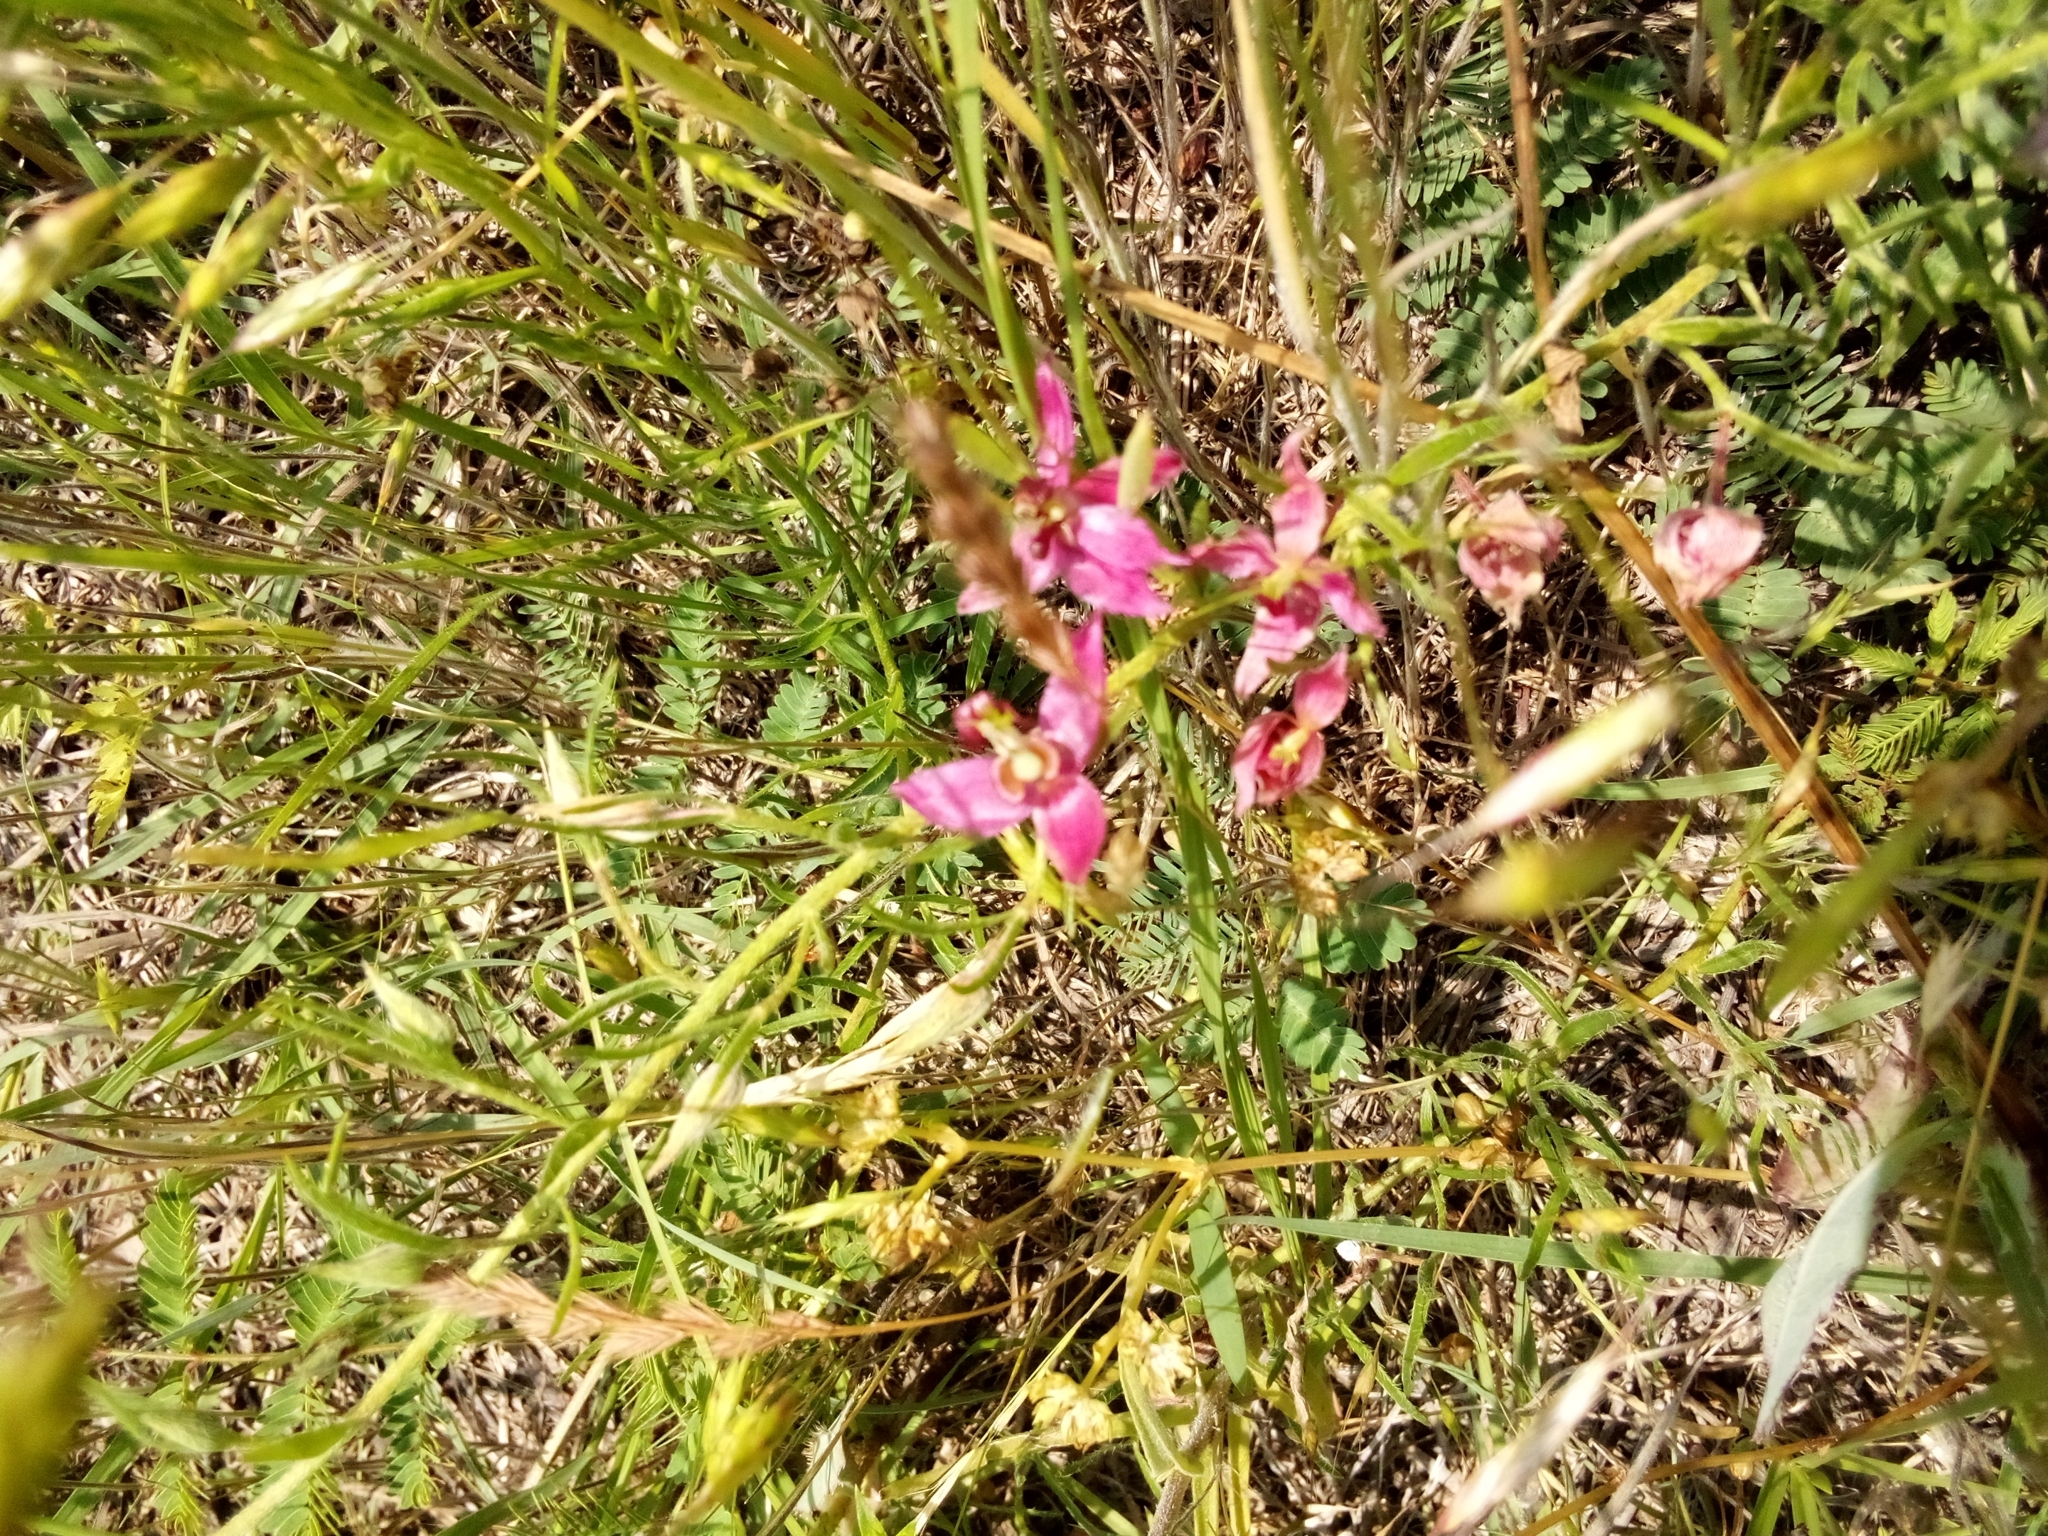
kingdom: Plantae
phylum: Tracheophyta
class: Magnoliopsida
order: Zygophyllales
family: Krameriaceae
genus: Krameria
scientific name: Krameria lanceolata
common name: Ratany
